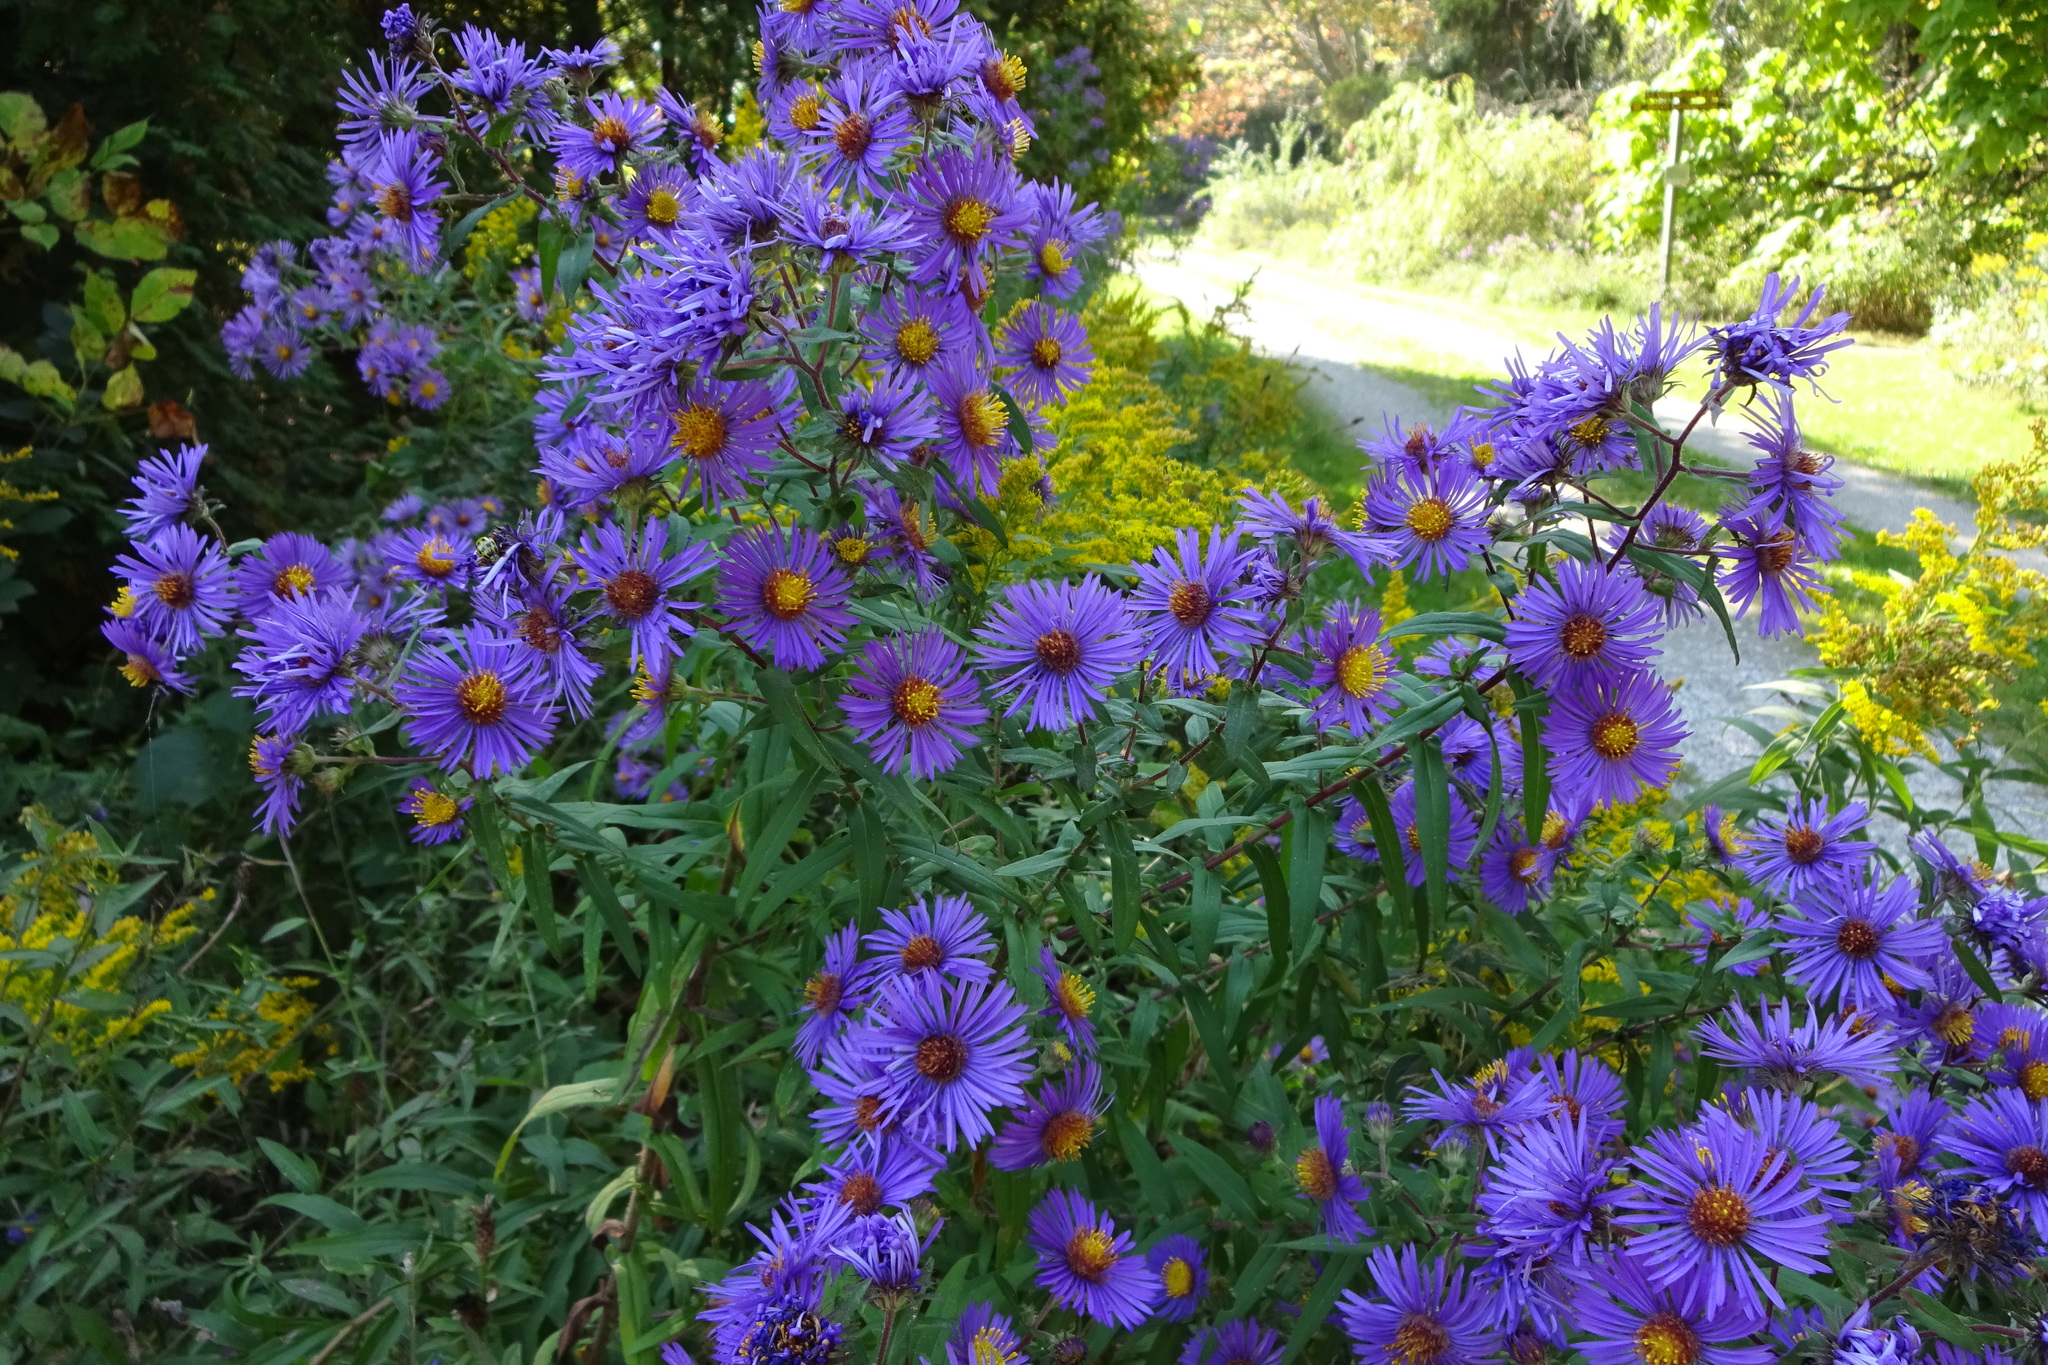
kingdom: Plantae
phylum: Tracheophyta
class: Magnoliopsida
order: Asterales
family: Asteraceae
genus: Symphyotrichum
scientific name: Symphyotrichum novae-angliae
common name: Michaelmas daisy
